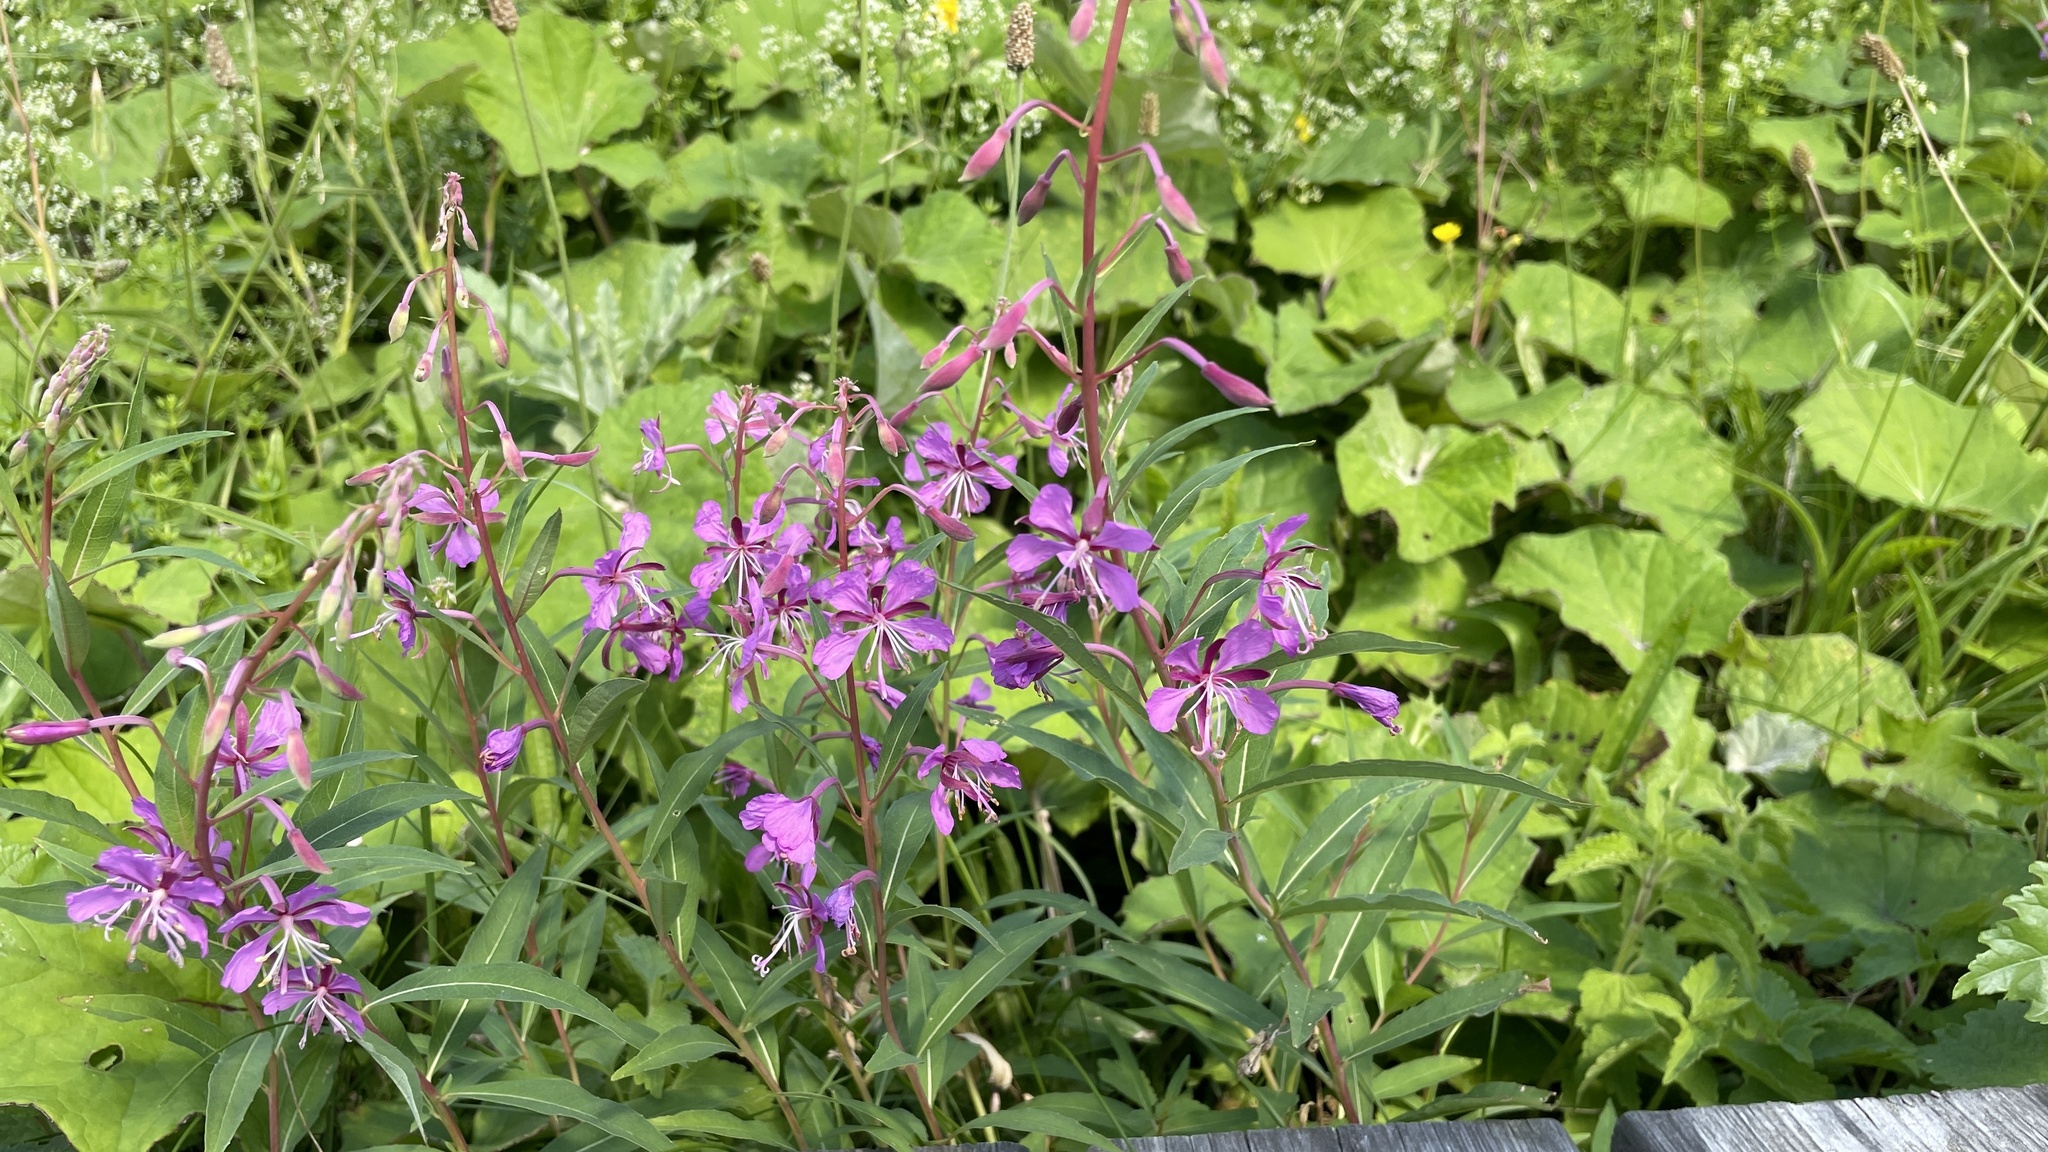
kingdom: Plantae
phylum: Tracheophyta
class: Magnoliopsida
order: Myrtales
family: Onagraceae
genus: Chamaenerion
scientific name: Chamaenerion angustifolium
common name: Fireweed
